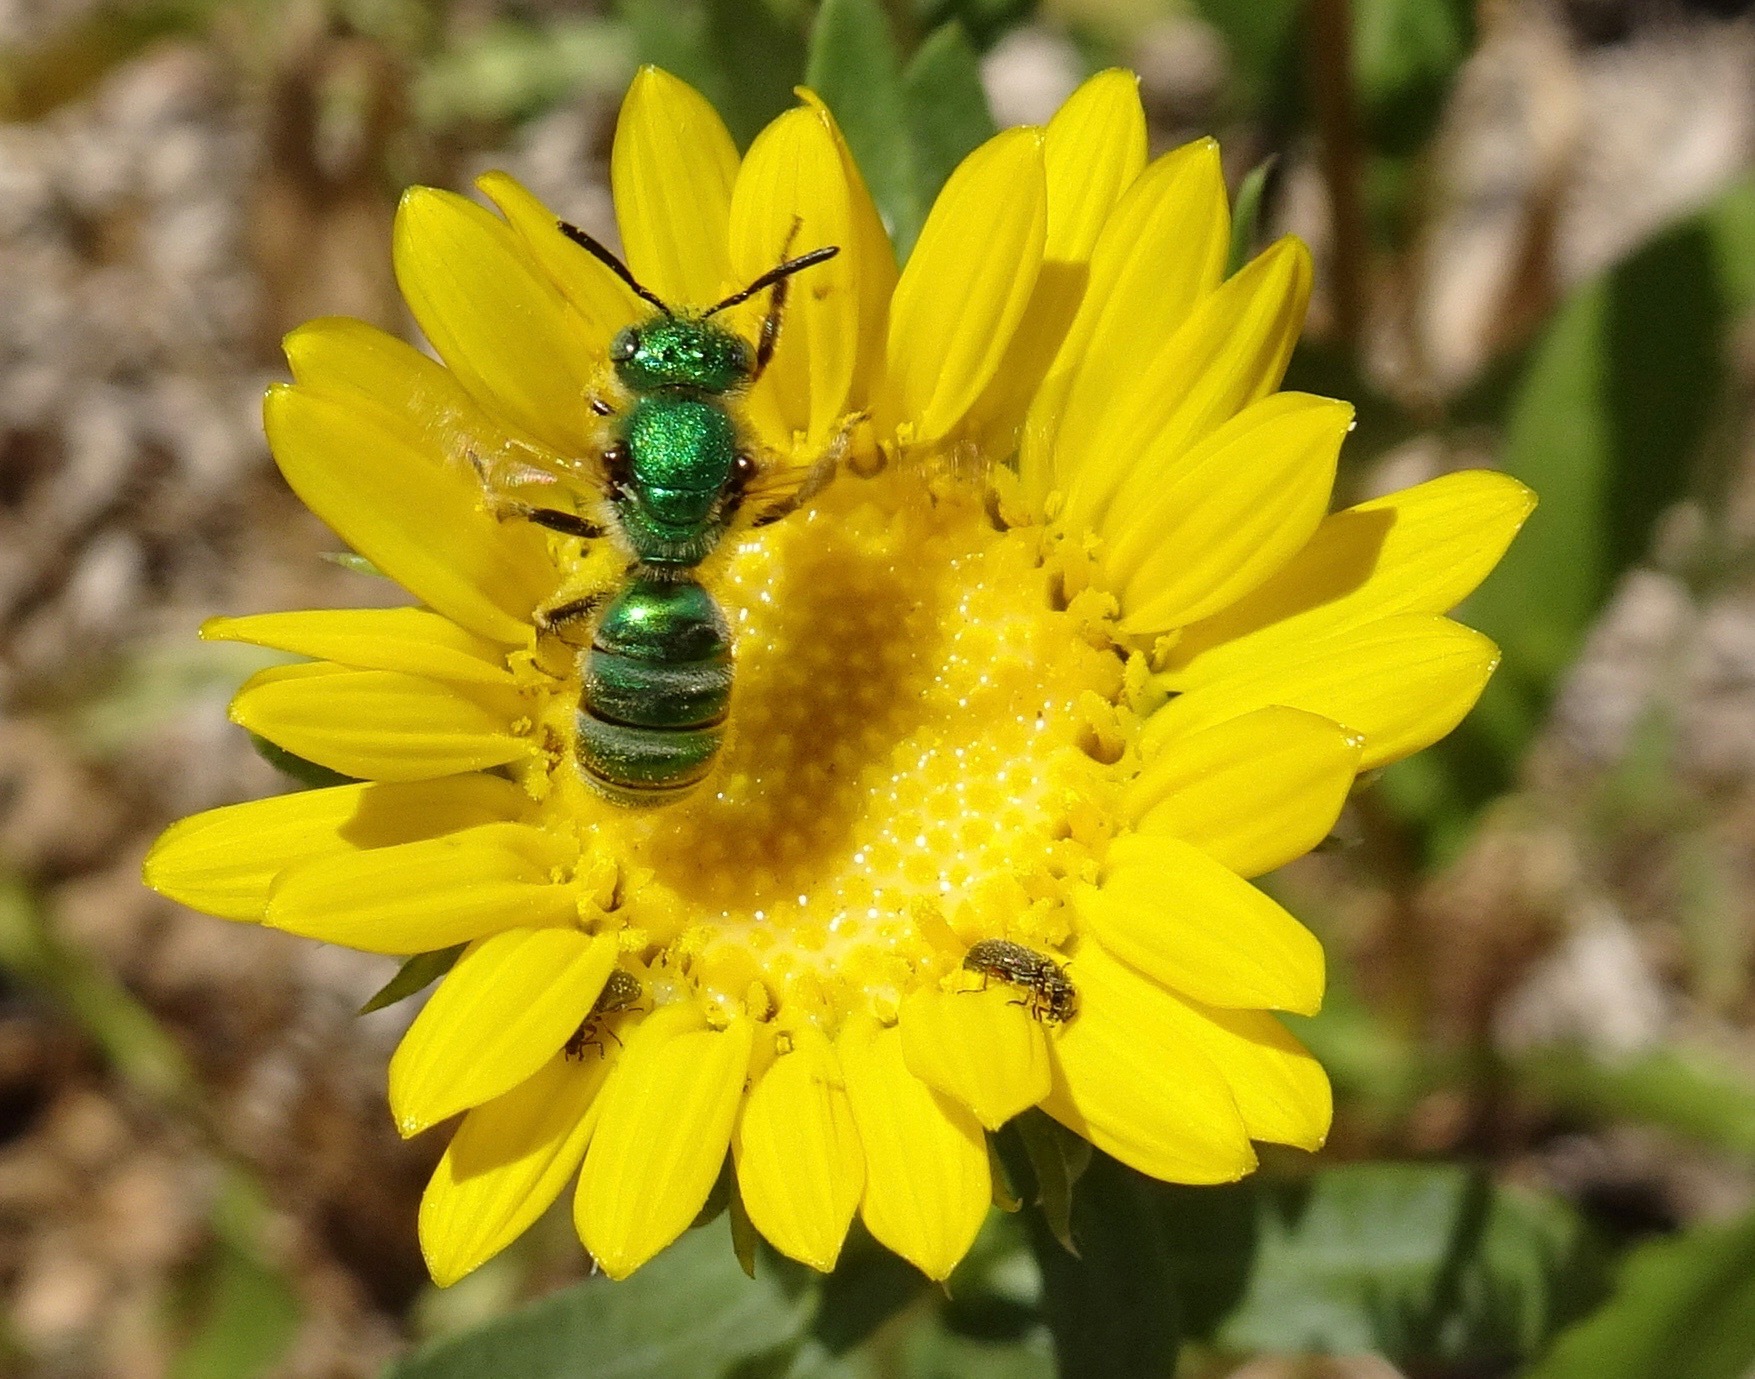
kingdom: Animalia
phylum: Arthropoda
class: Insecta
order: Hymenoptera
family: Halictidae
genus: Agapostemon
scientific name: Agapostemon texanus
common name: Texas striped sweat bee
